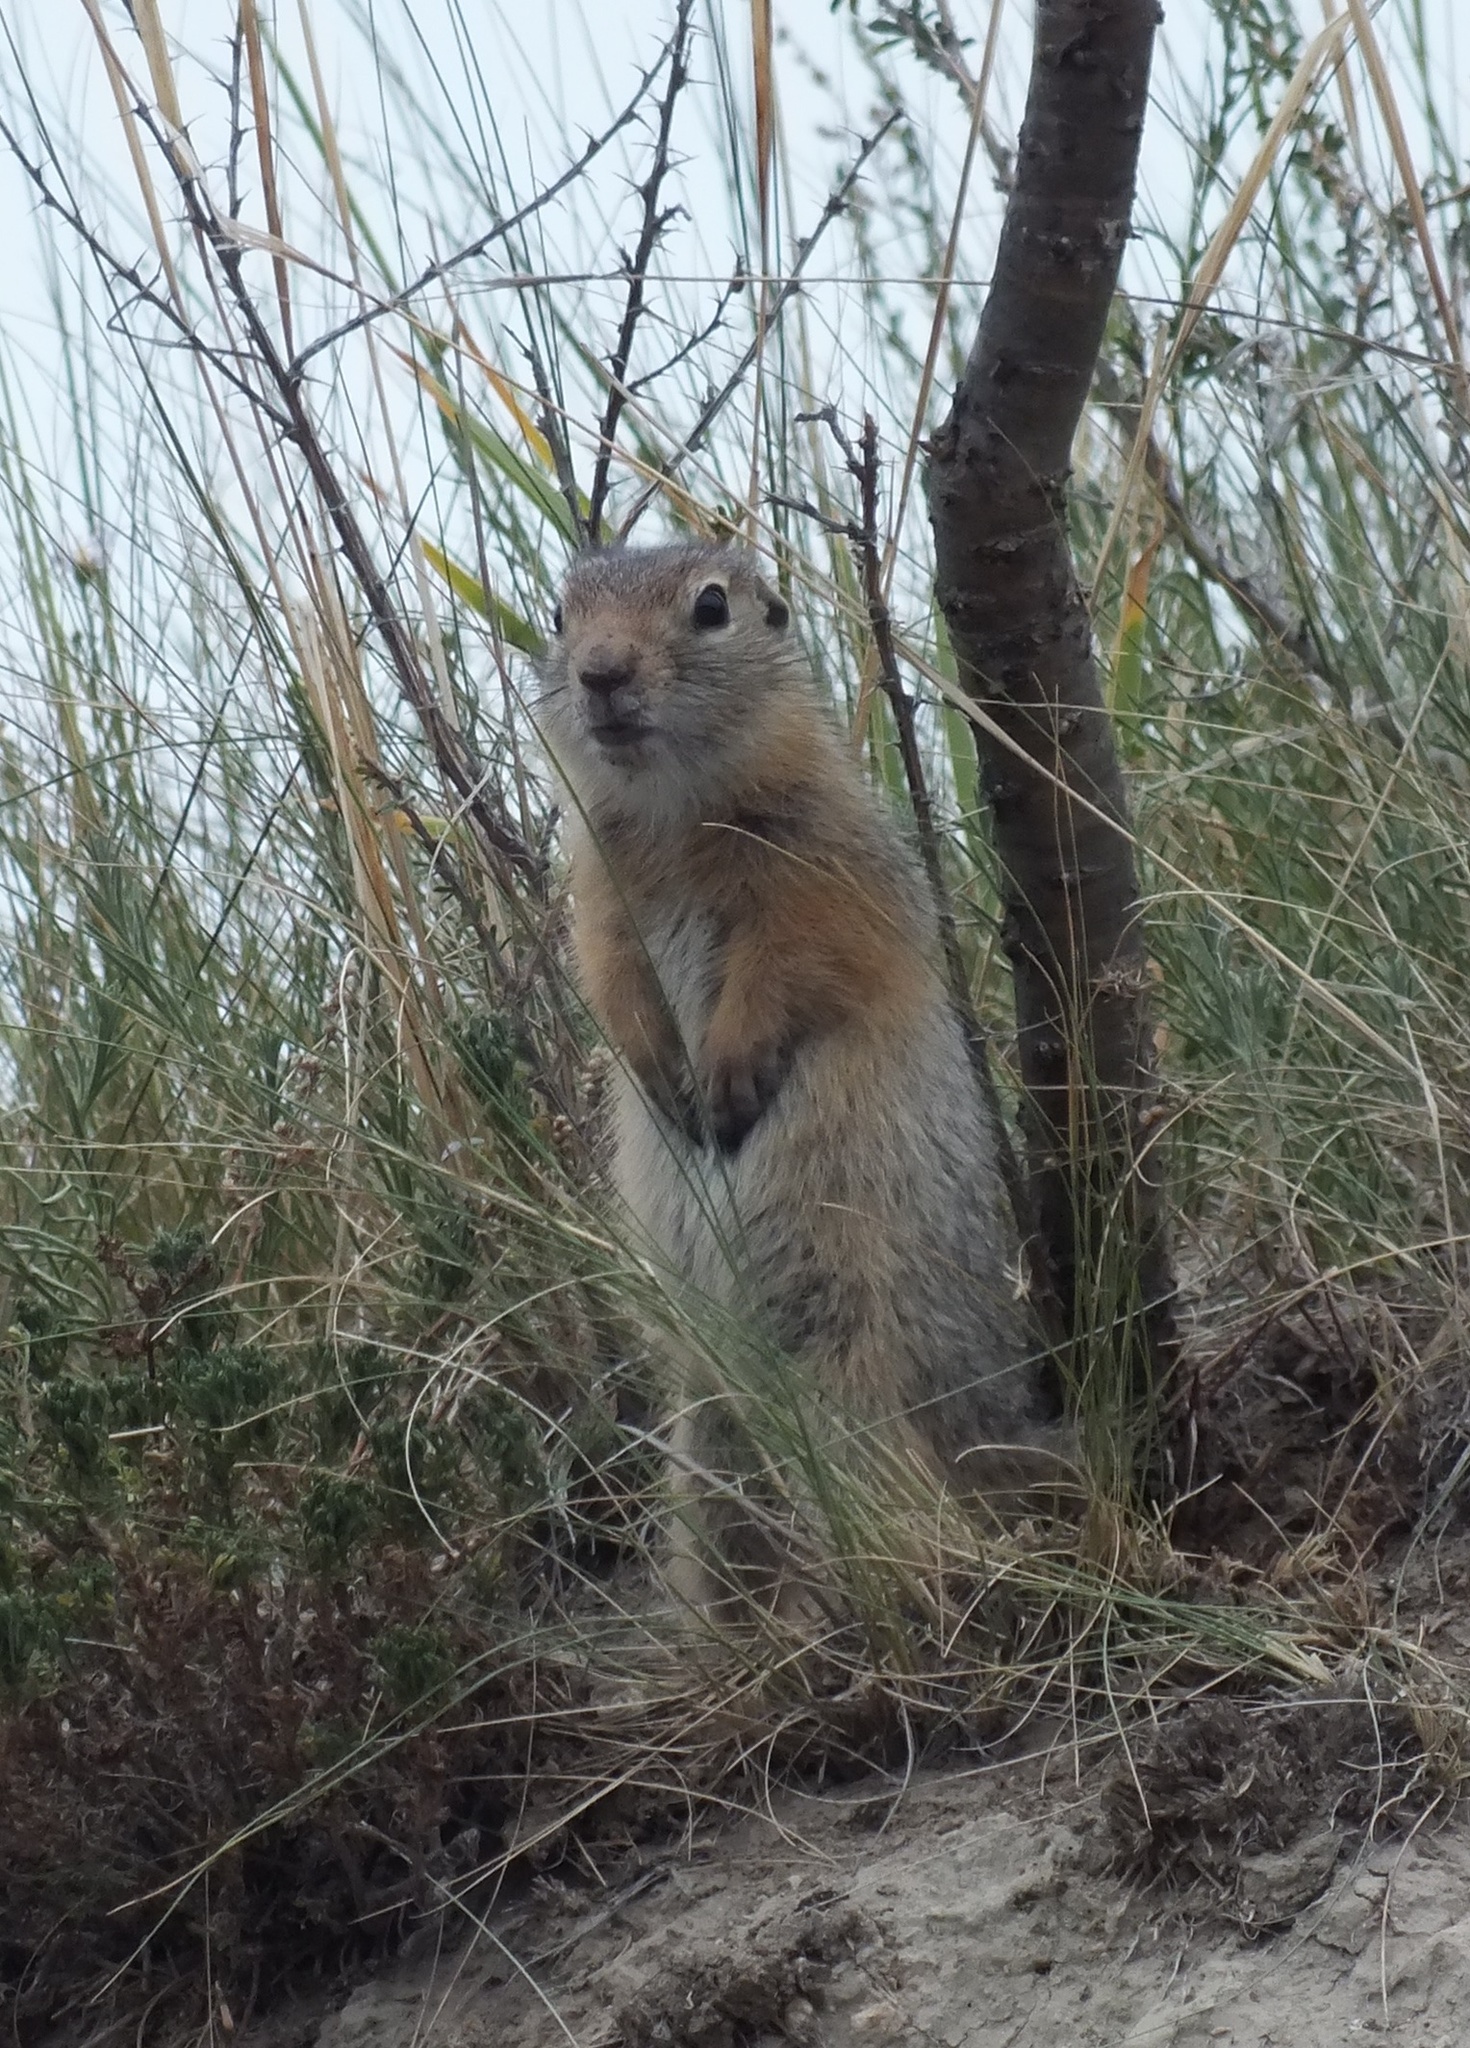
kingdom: Animalia
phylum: Chordata
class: Mammalia
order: Rodentia
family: Sciuridae
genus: Urocitellus
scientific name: Urocitellus undulatus
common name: Long-tailed ground squirrel
